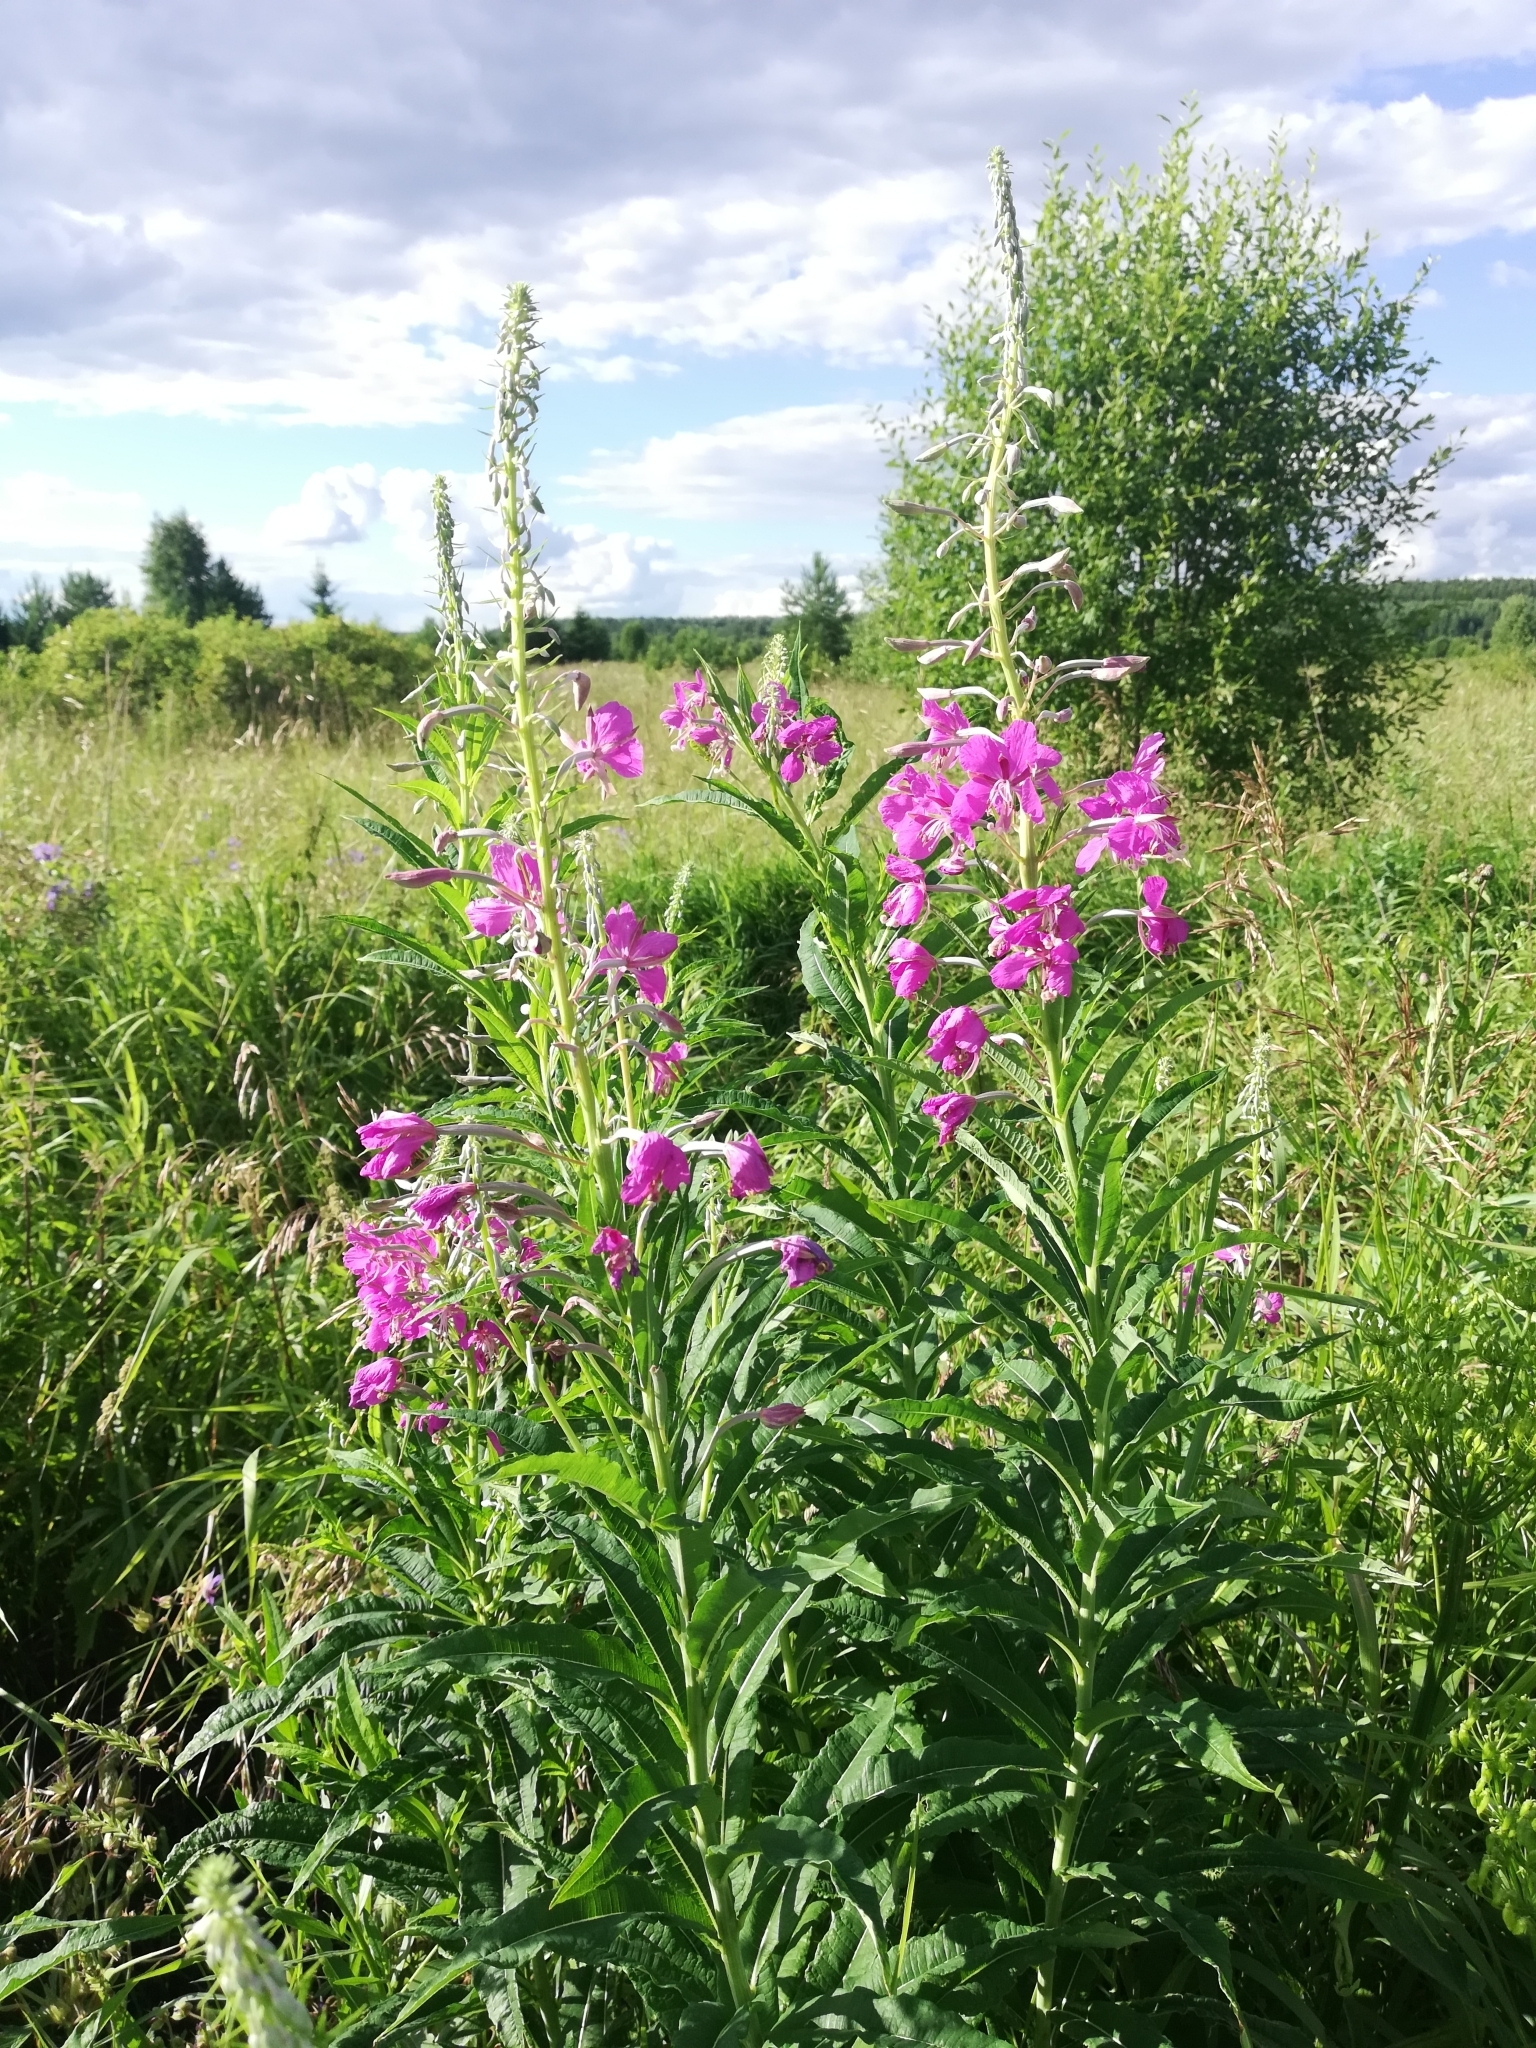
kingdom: Plantae
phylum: Tracheophyta
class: Magnoliopsida
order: Myrtales
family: Onagraceae
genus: Chamaenerion
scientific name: Chamaenerion angustifolium
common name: Fireweed
